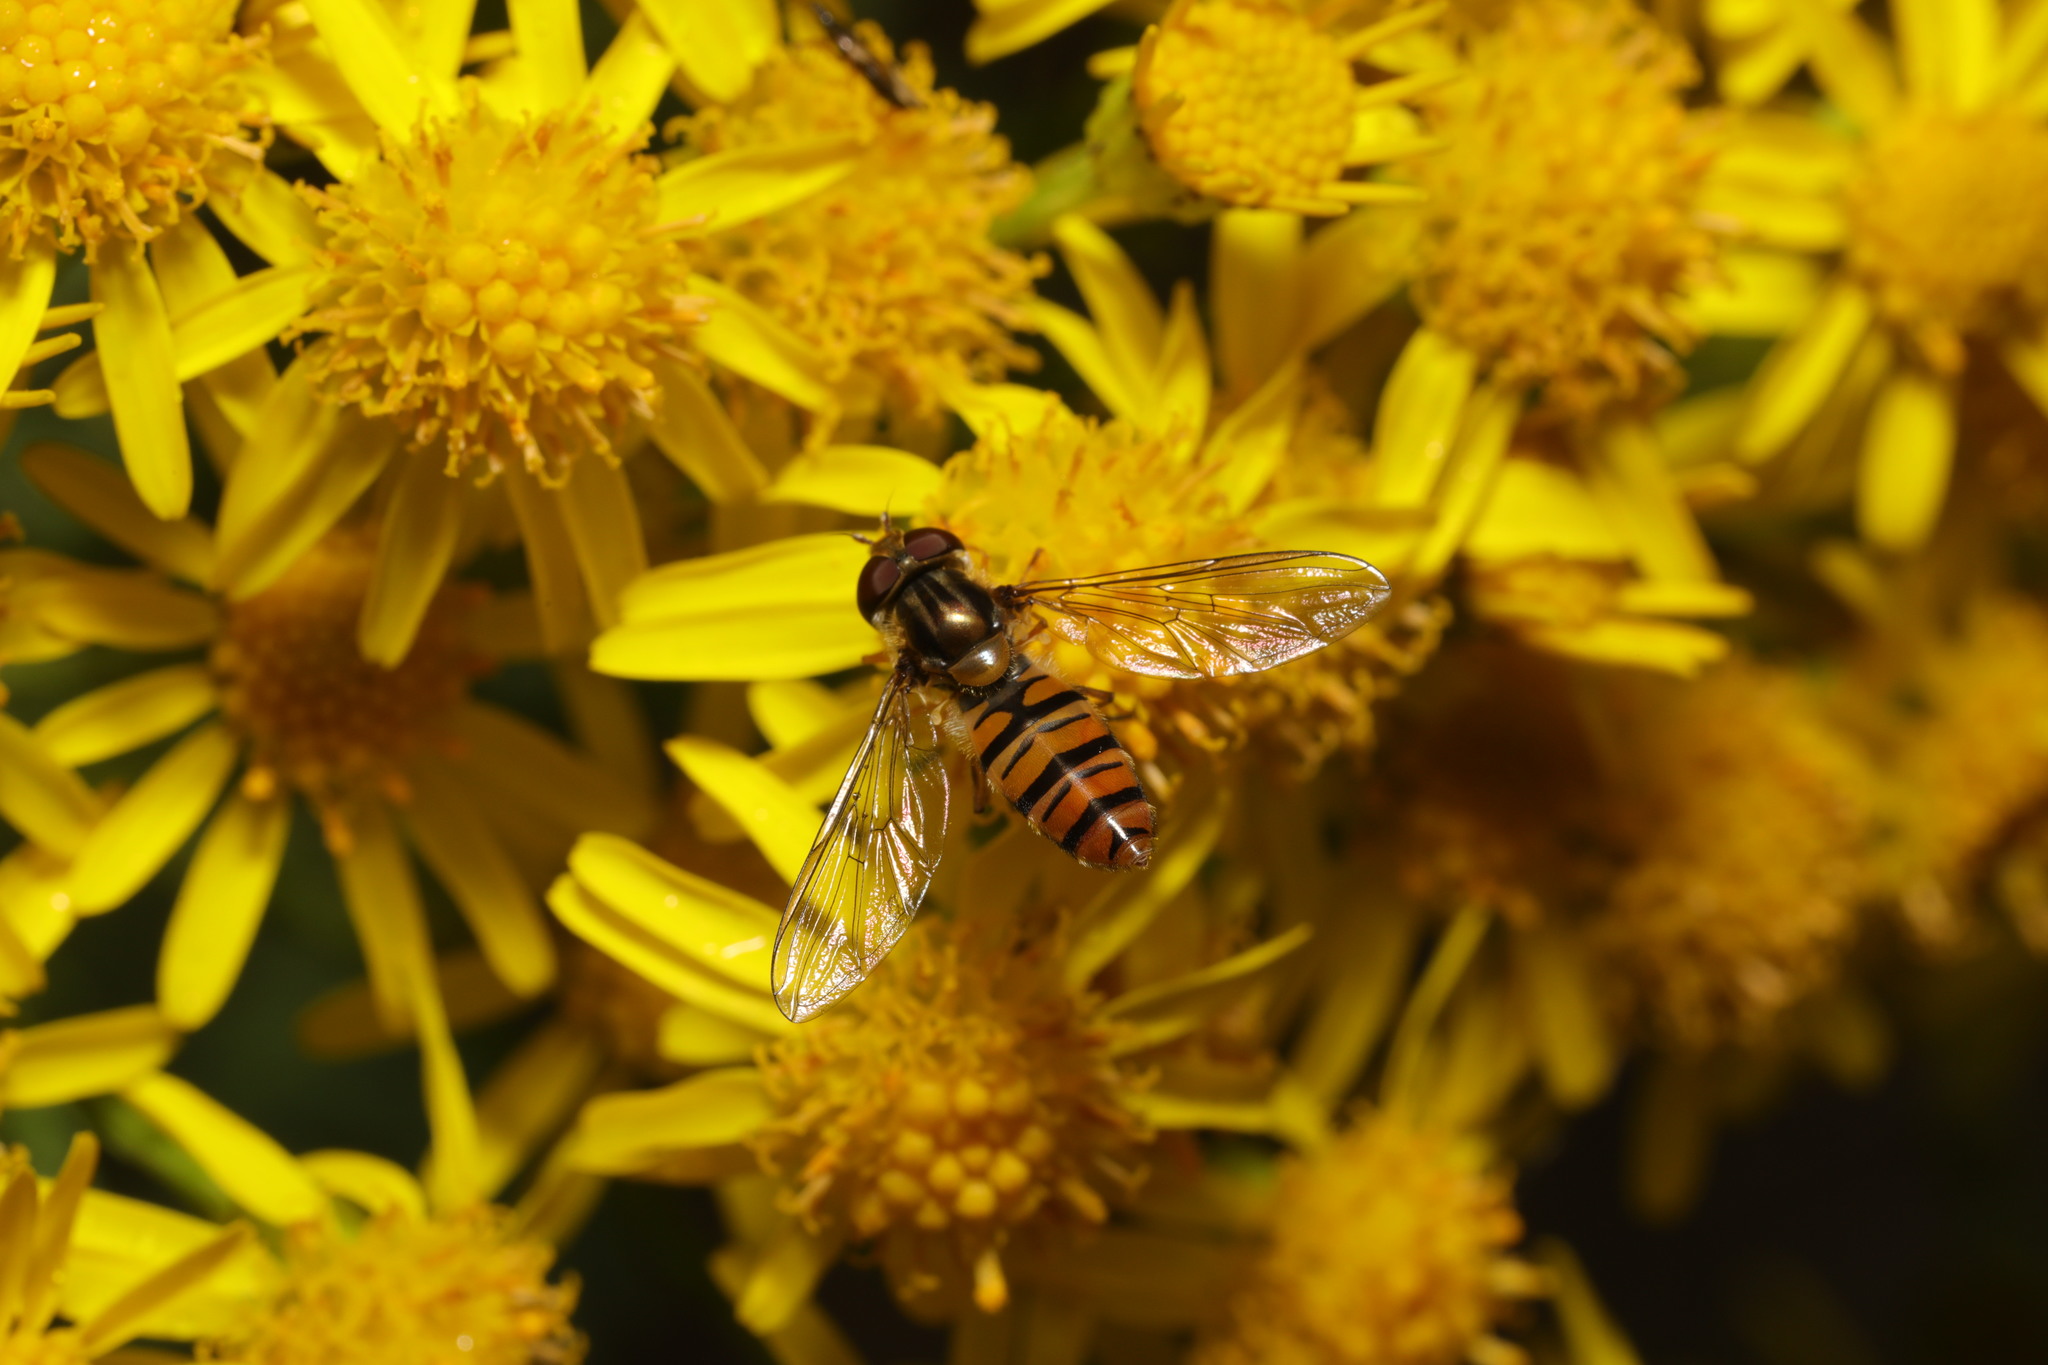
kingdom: Animalia
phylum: Arthropoda
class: Insecta
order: Diptera
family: Syrphidae
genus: Episyrphus
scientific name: Episyrphus balteatus
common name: Marmalade hoverfly
